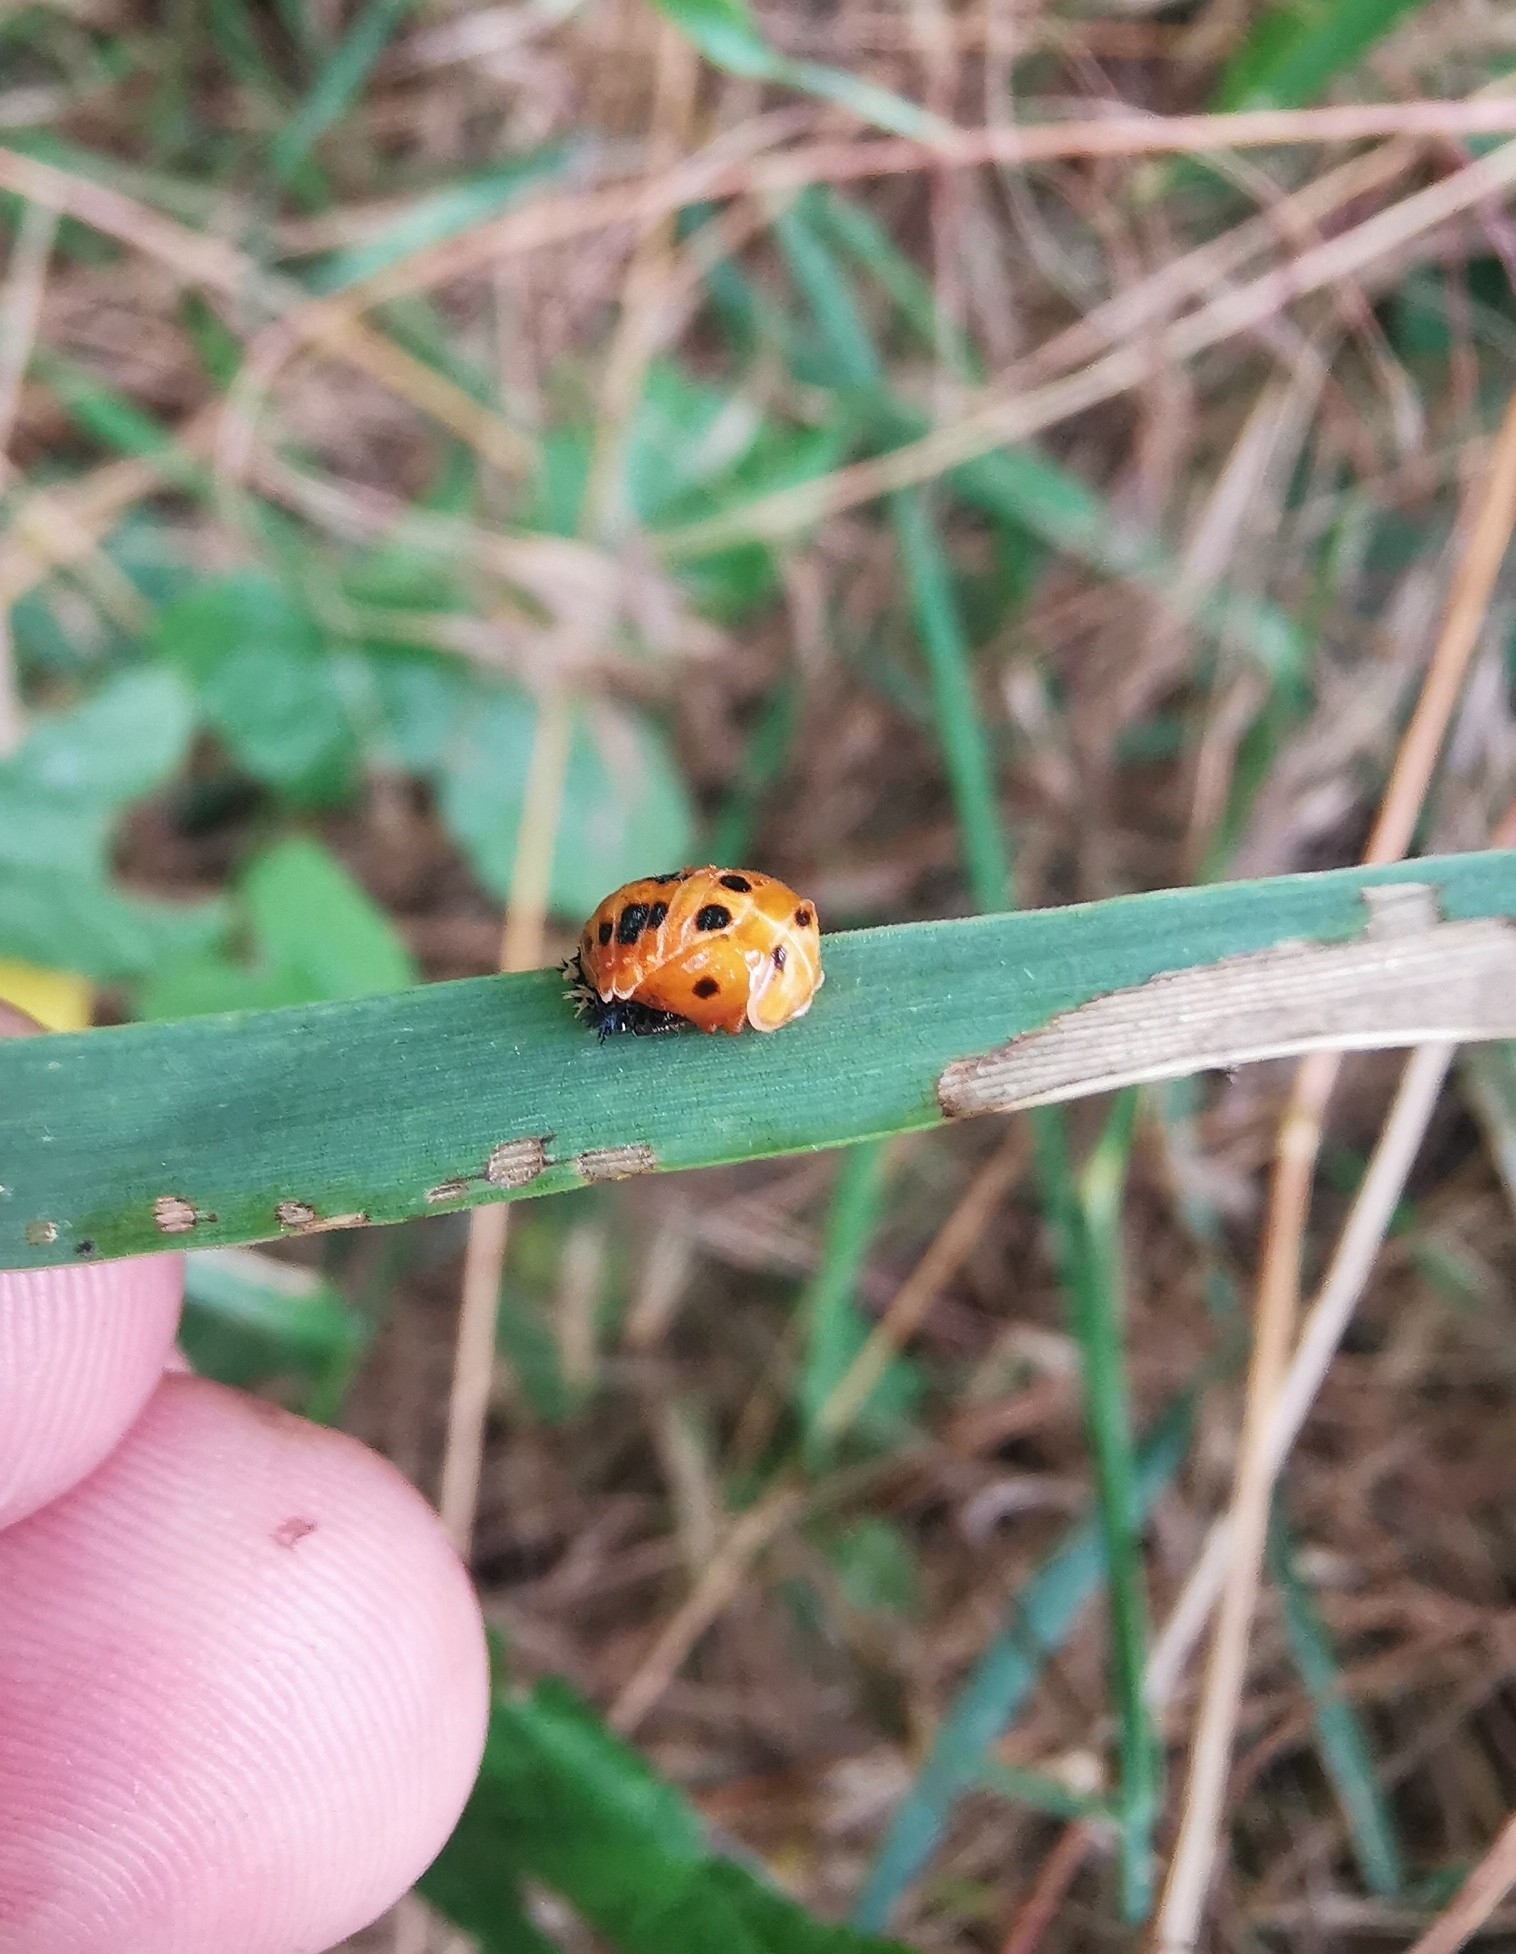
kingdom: Animalia
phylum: Arthropoda
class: Insecta
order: Coleoptera
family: Coccinellidae
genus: Harmonia
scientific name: Harmonia axyridis
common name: Harlequin ladybird
